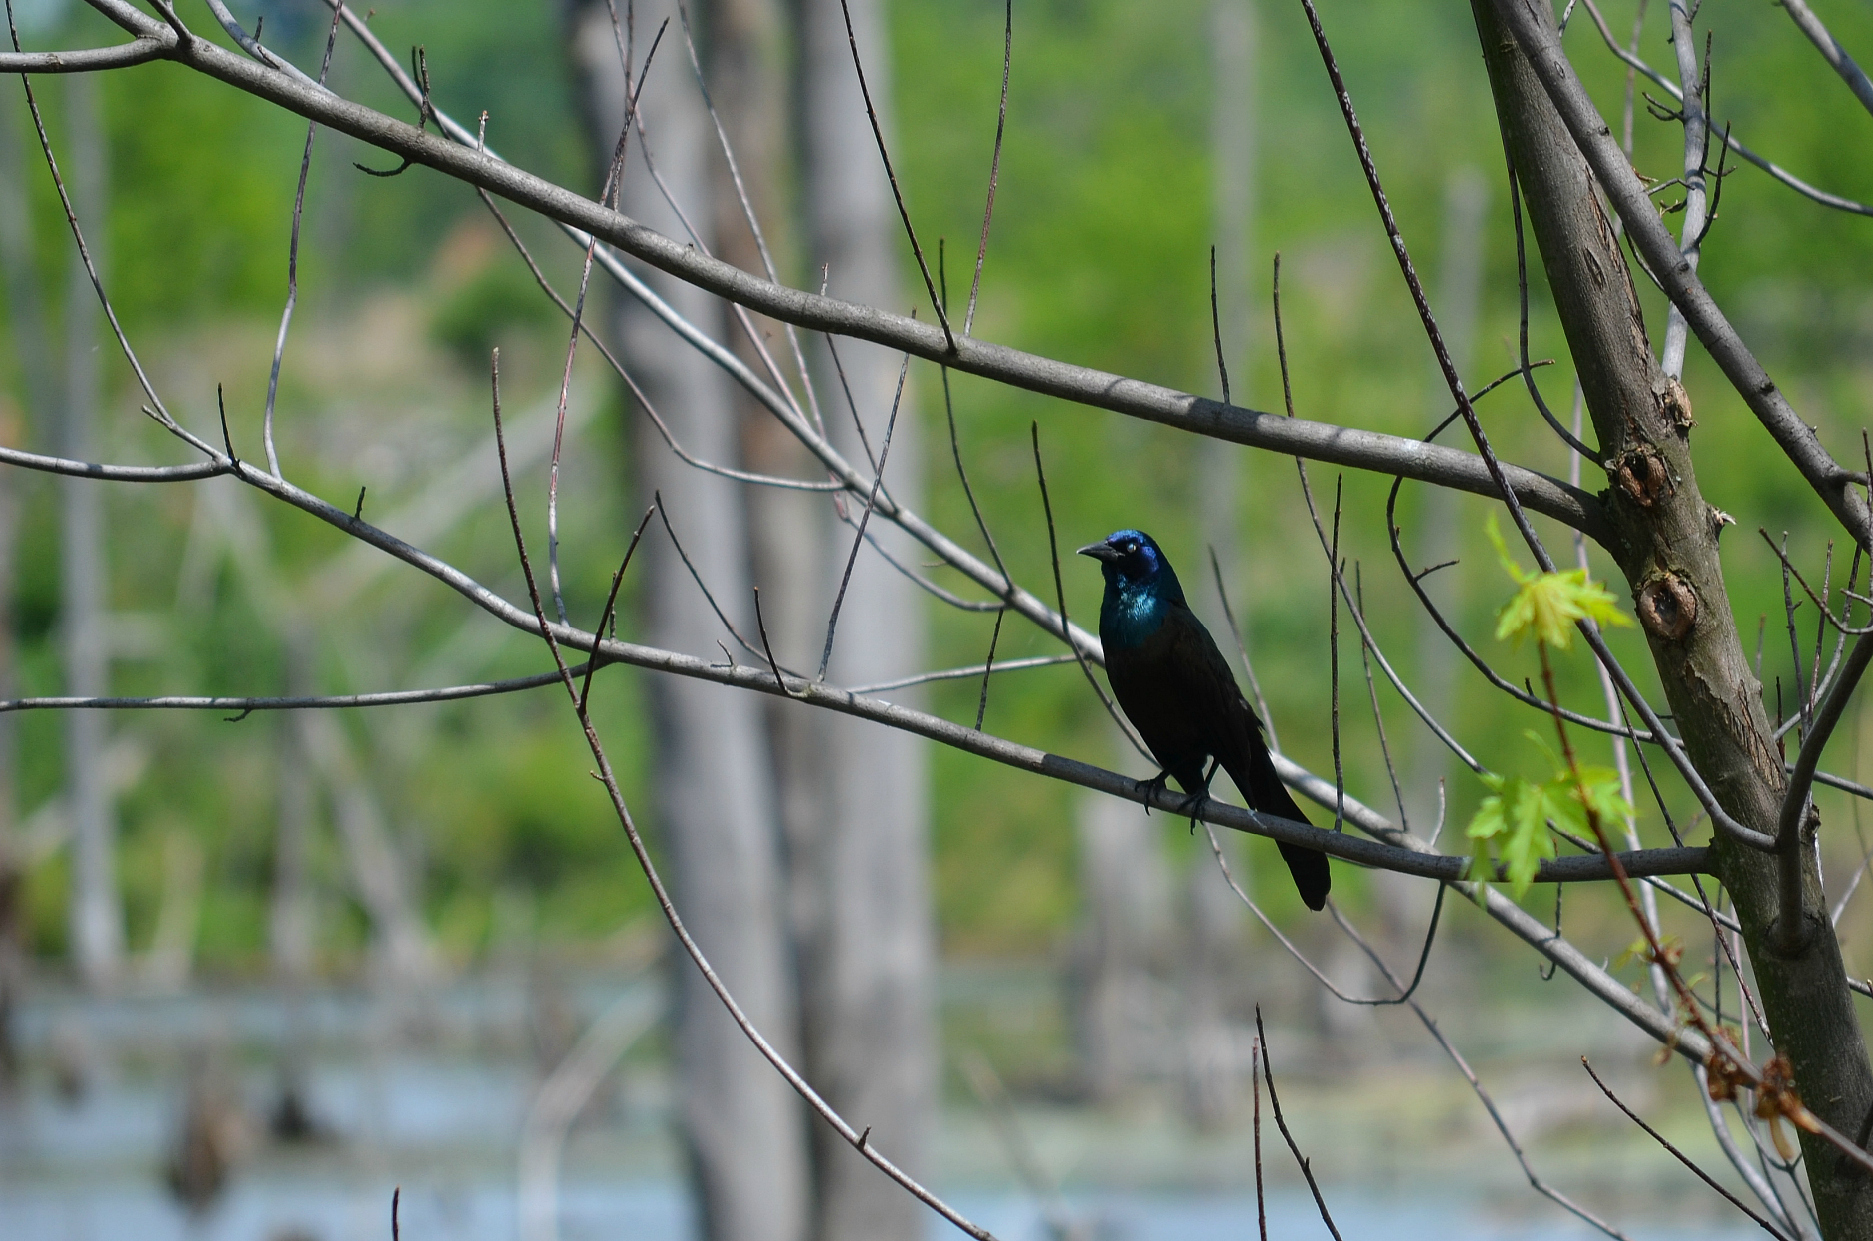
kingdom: Animalia
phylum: Chordata
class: Aves
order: Passeriformes
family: Icteridae
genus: Quiscalus
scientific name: Quiscalus quiscula
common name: Common grackle
